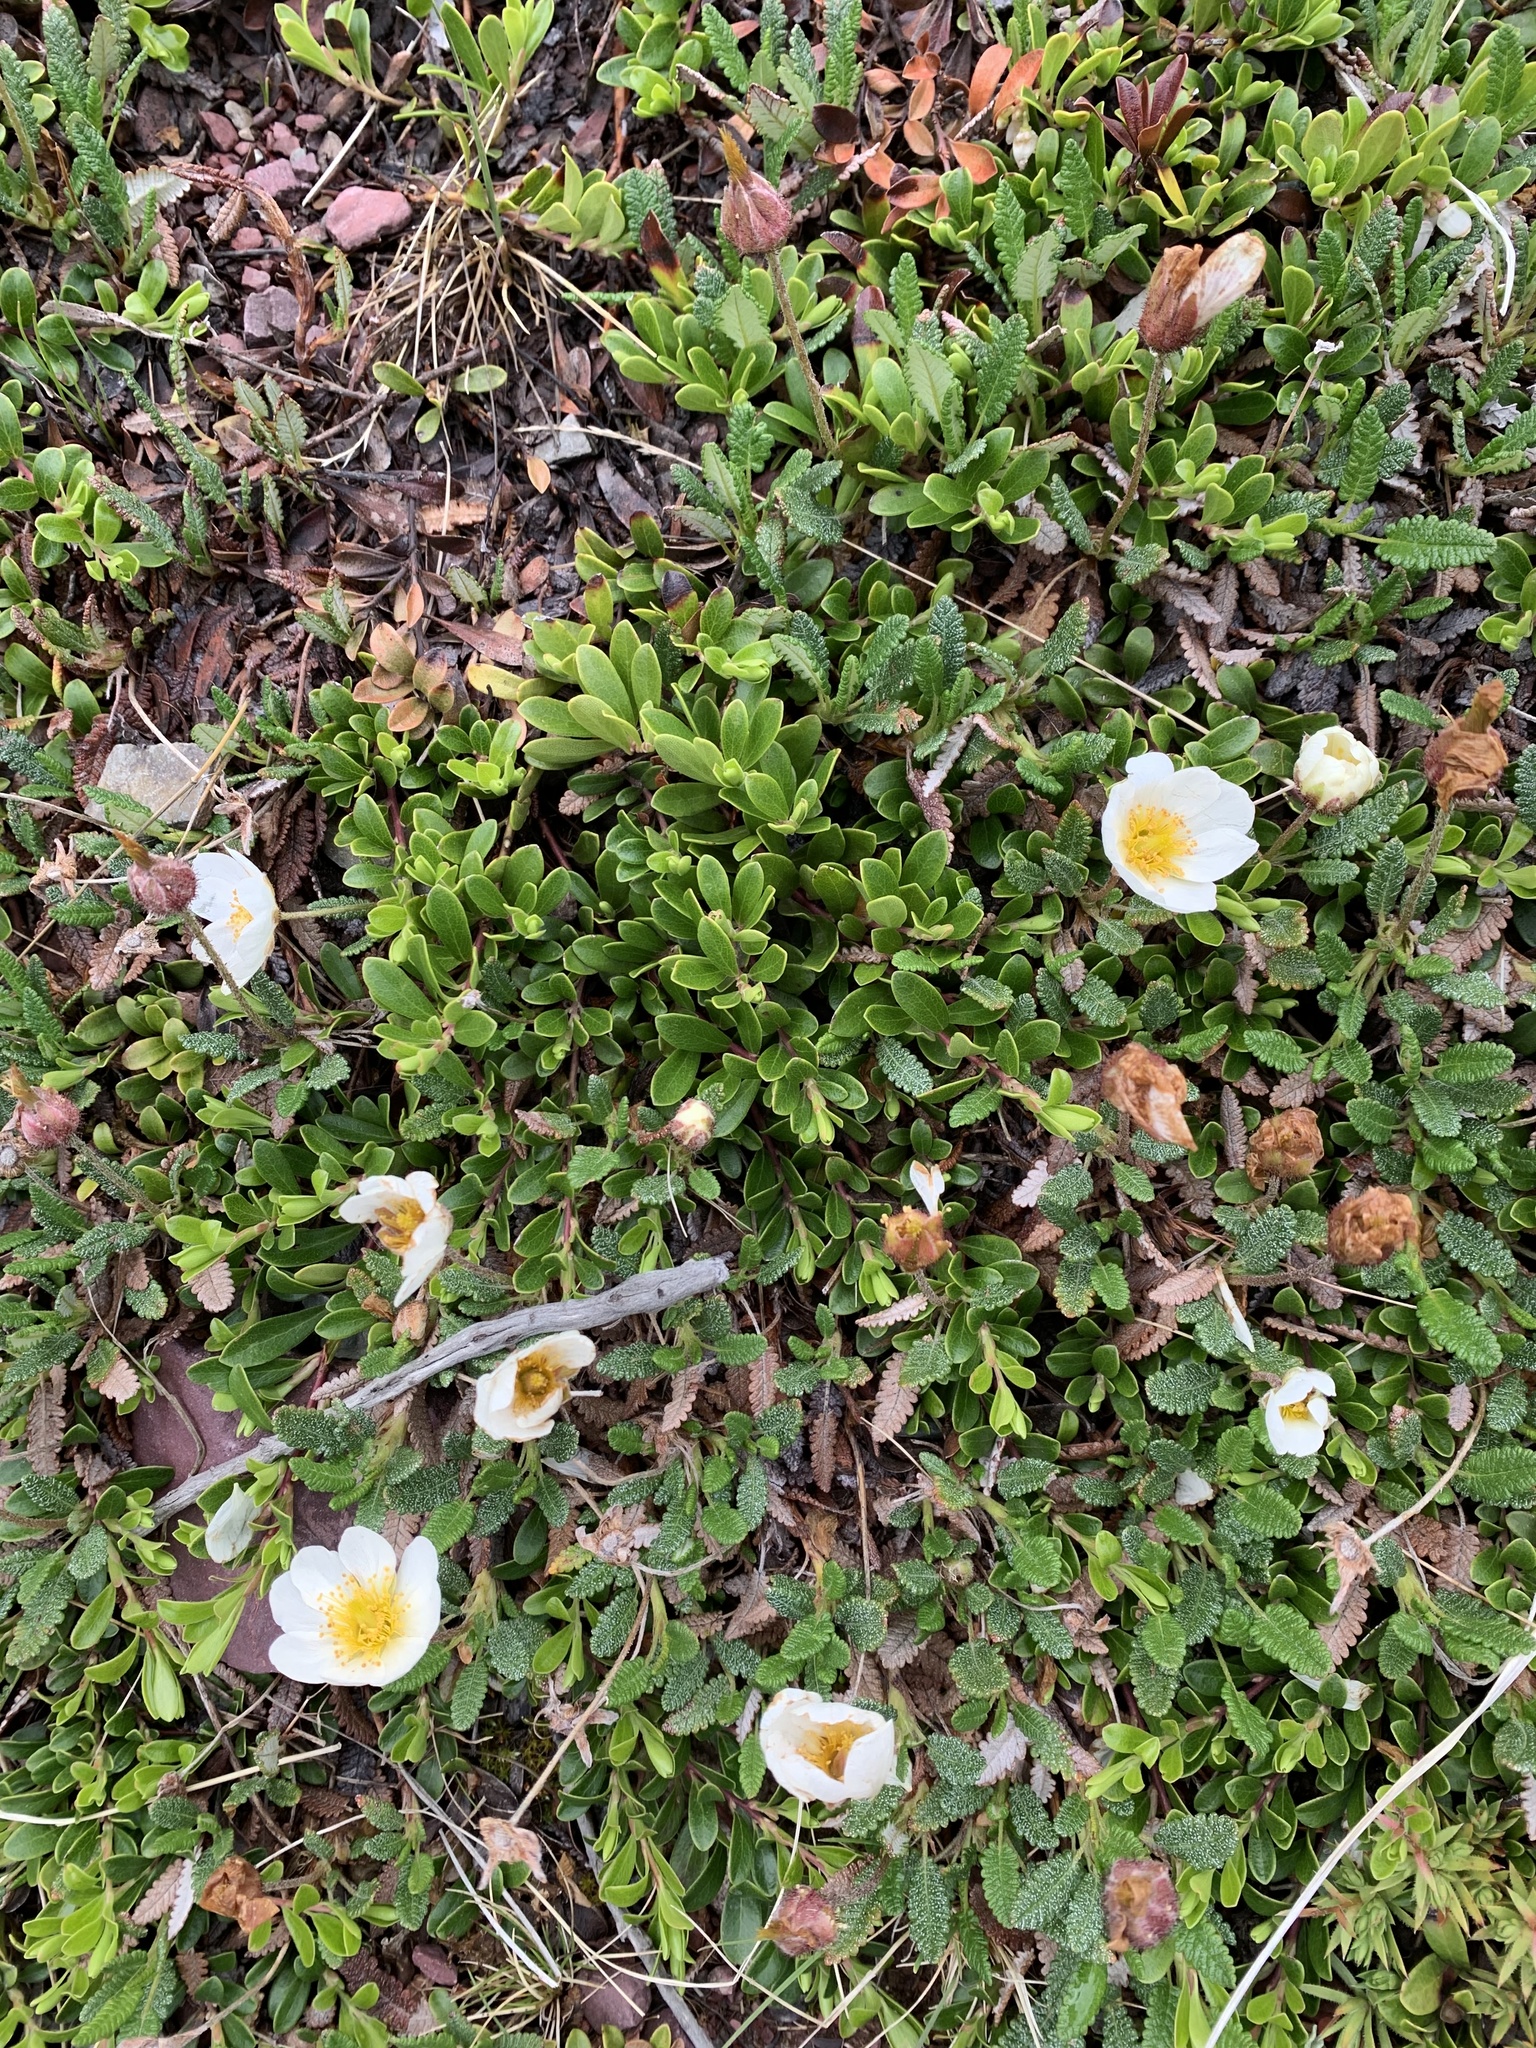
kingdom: Plantae
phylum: Tracheophyta
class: Magnoliopsida
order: Rosales
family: Rosaceae
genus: Dryas
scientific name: Dryas octopetala
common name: Eight-petal mountain-avens
